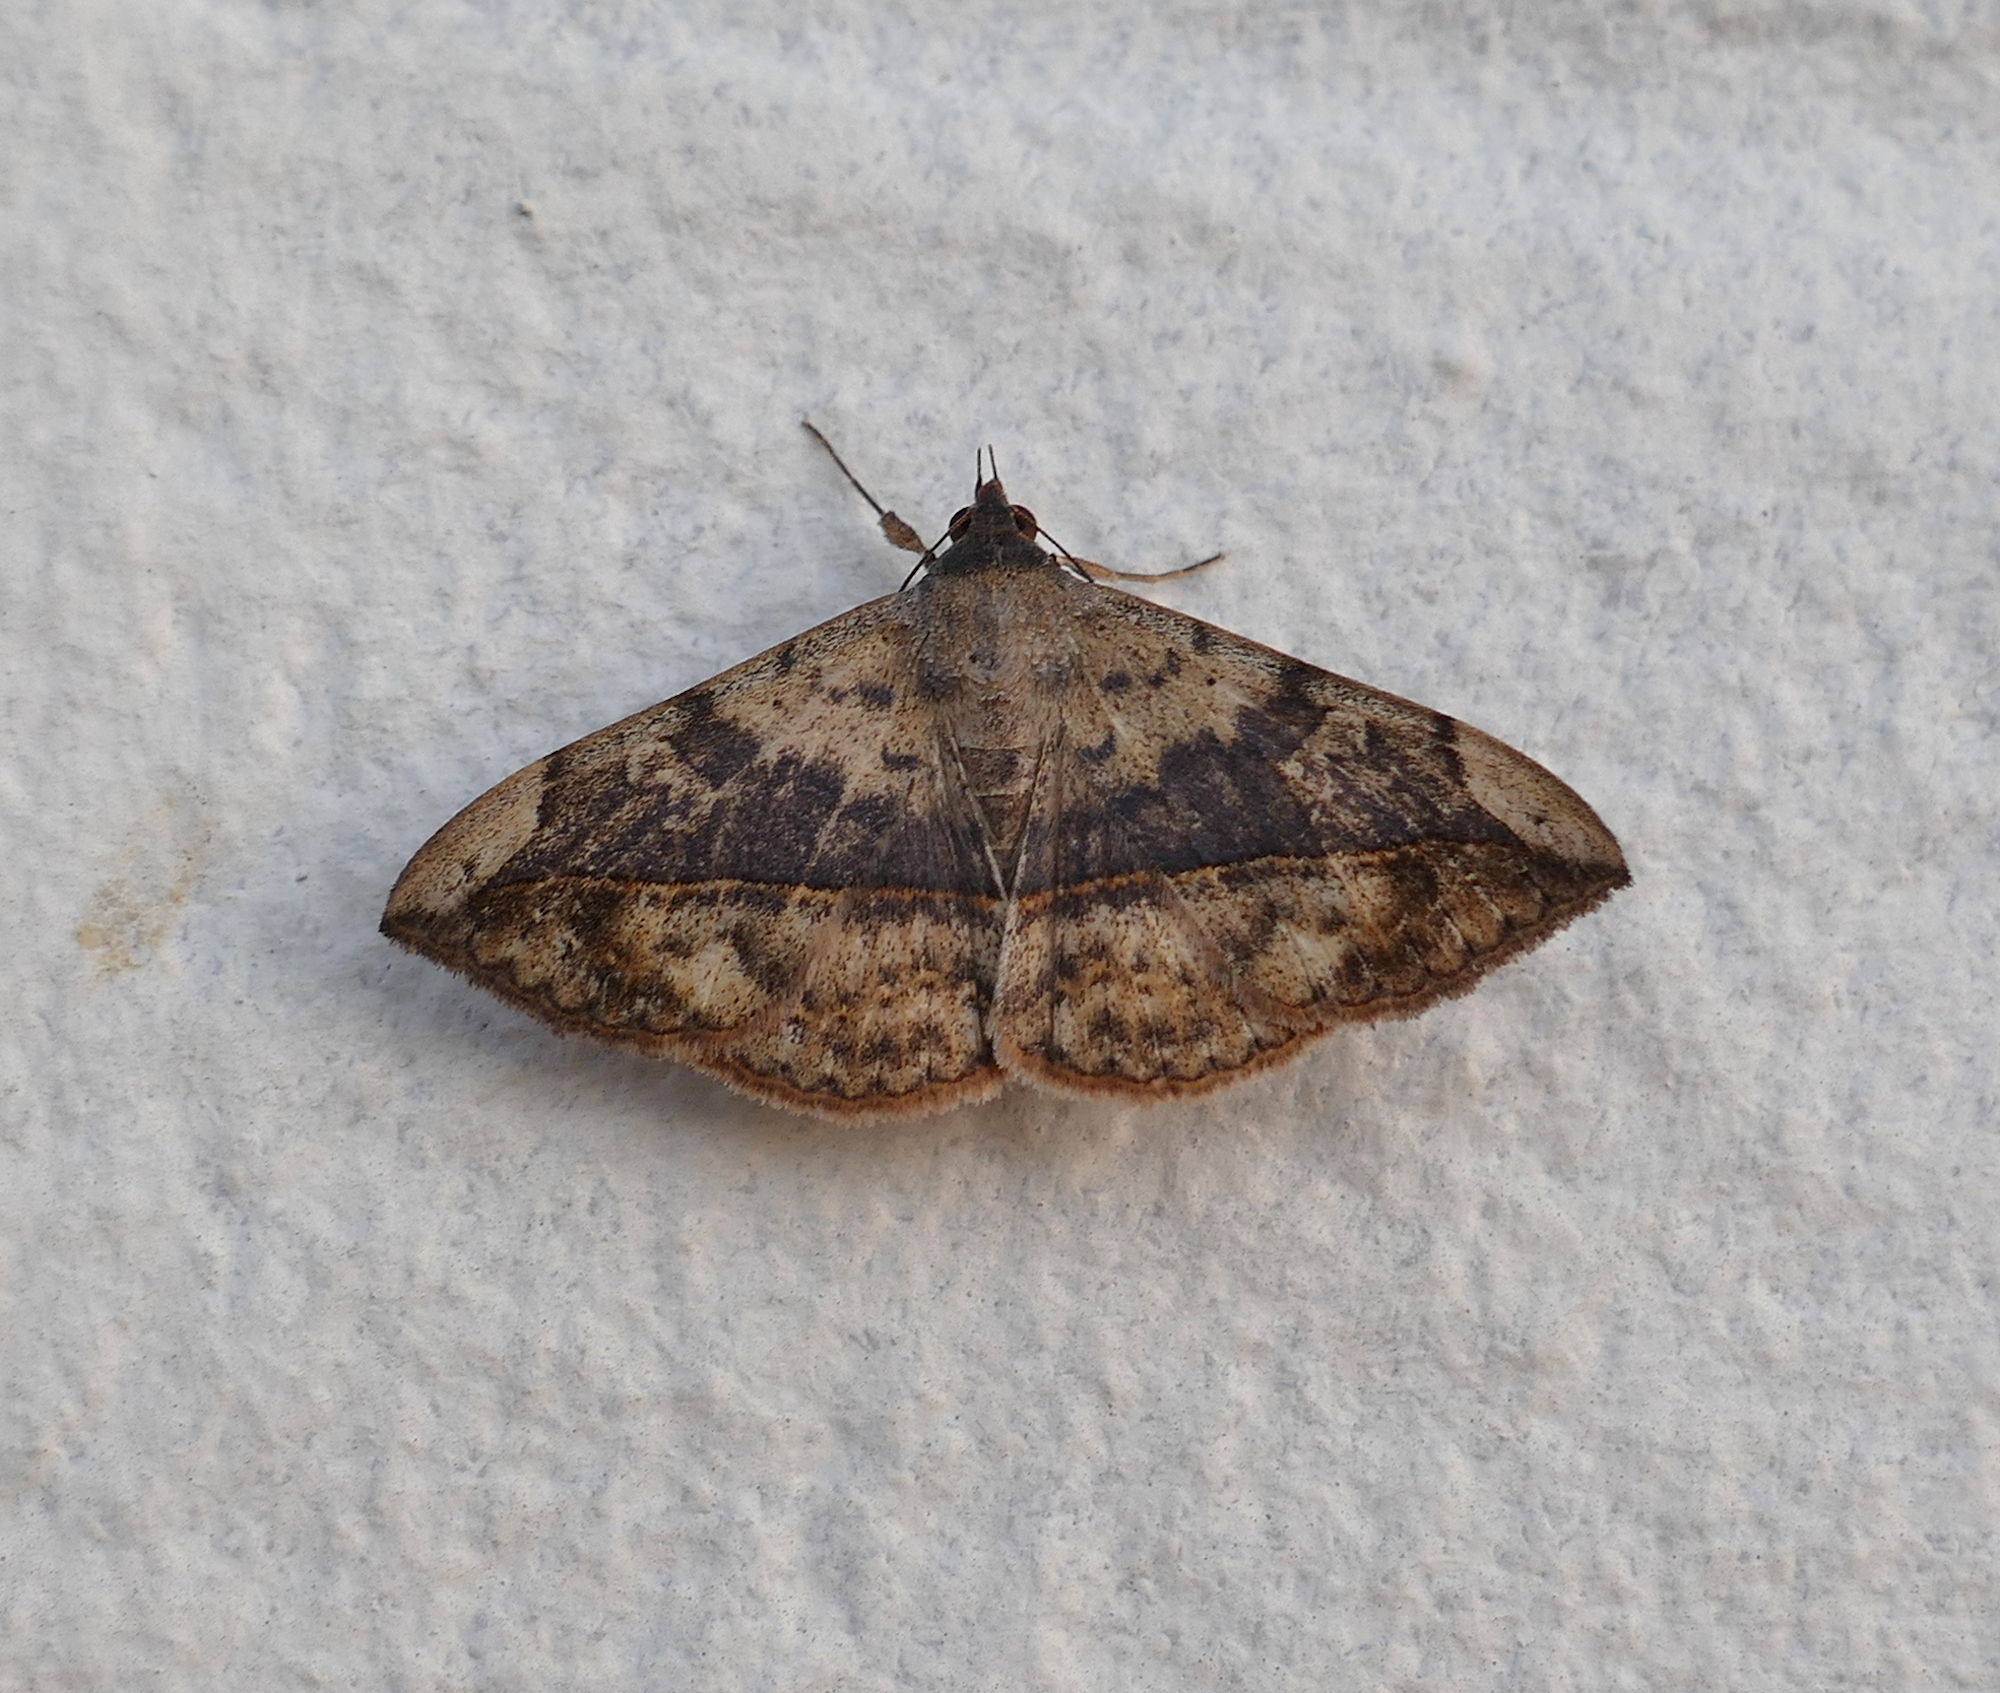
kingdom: Animalia
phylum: Arthropoda
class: Insecta
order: Lepidoptera
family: Erebidae
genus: Anticarsia
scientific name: Anticarsia gemmatalis
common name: Cutworm moth
